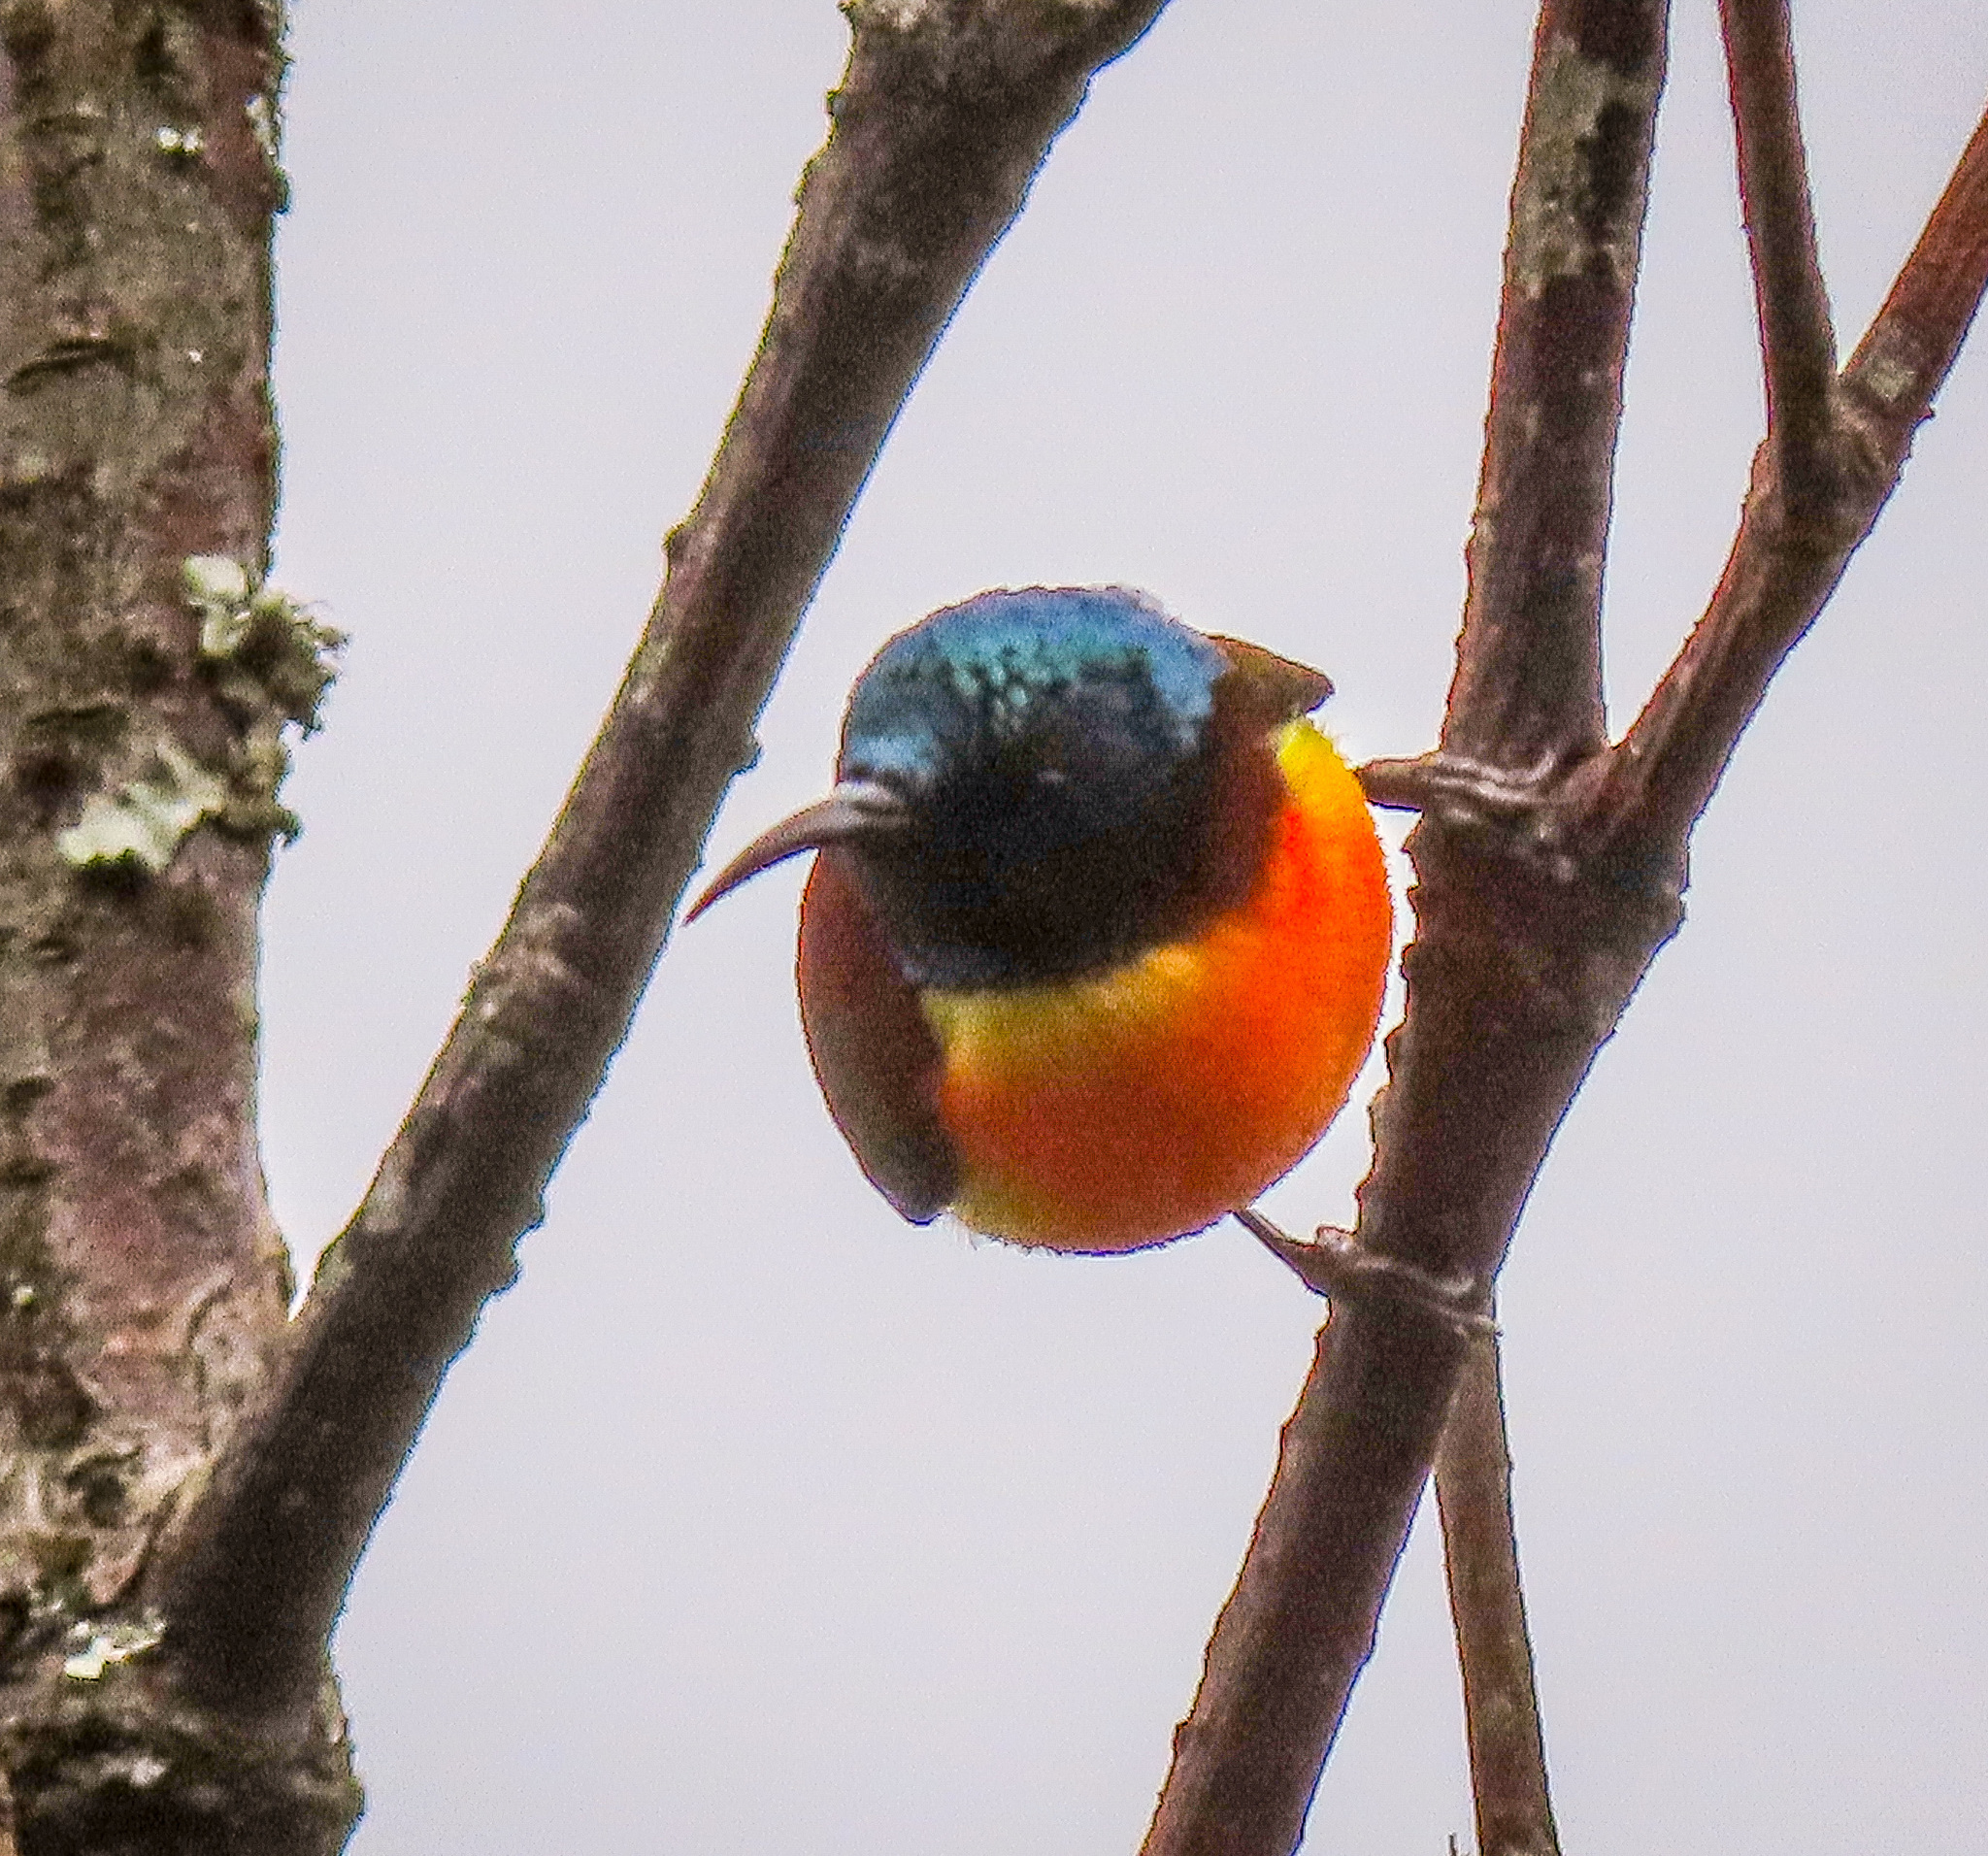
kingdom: Animalia
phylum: Chordata
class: Aves
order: Passeriformes
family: Nectariniidae
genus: Aethopyga
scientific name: Aethopyga nipalensis
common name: Green-tailed sunbird
